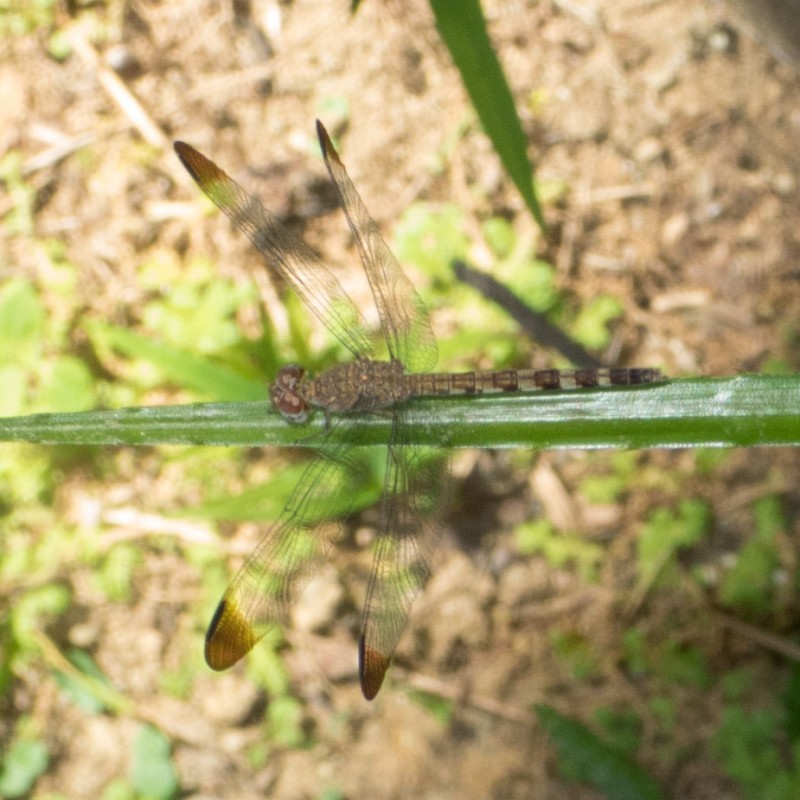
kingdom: Animalia
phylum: Arthropoda
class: Insecta
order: Odonata
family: Libellulidae
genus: Uracis
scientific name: Uracis imbuta
